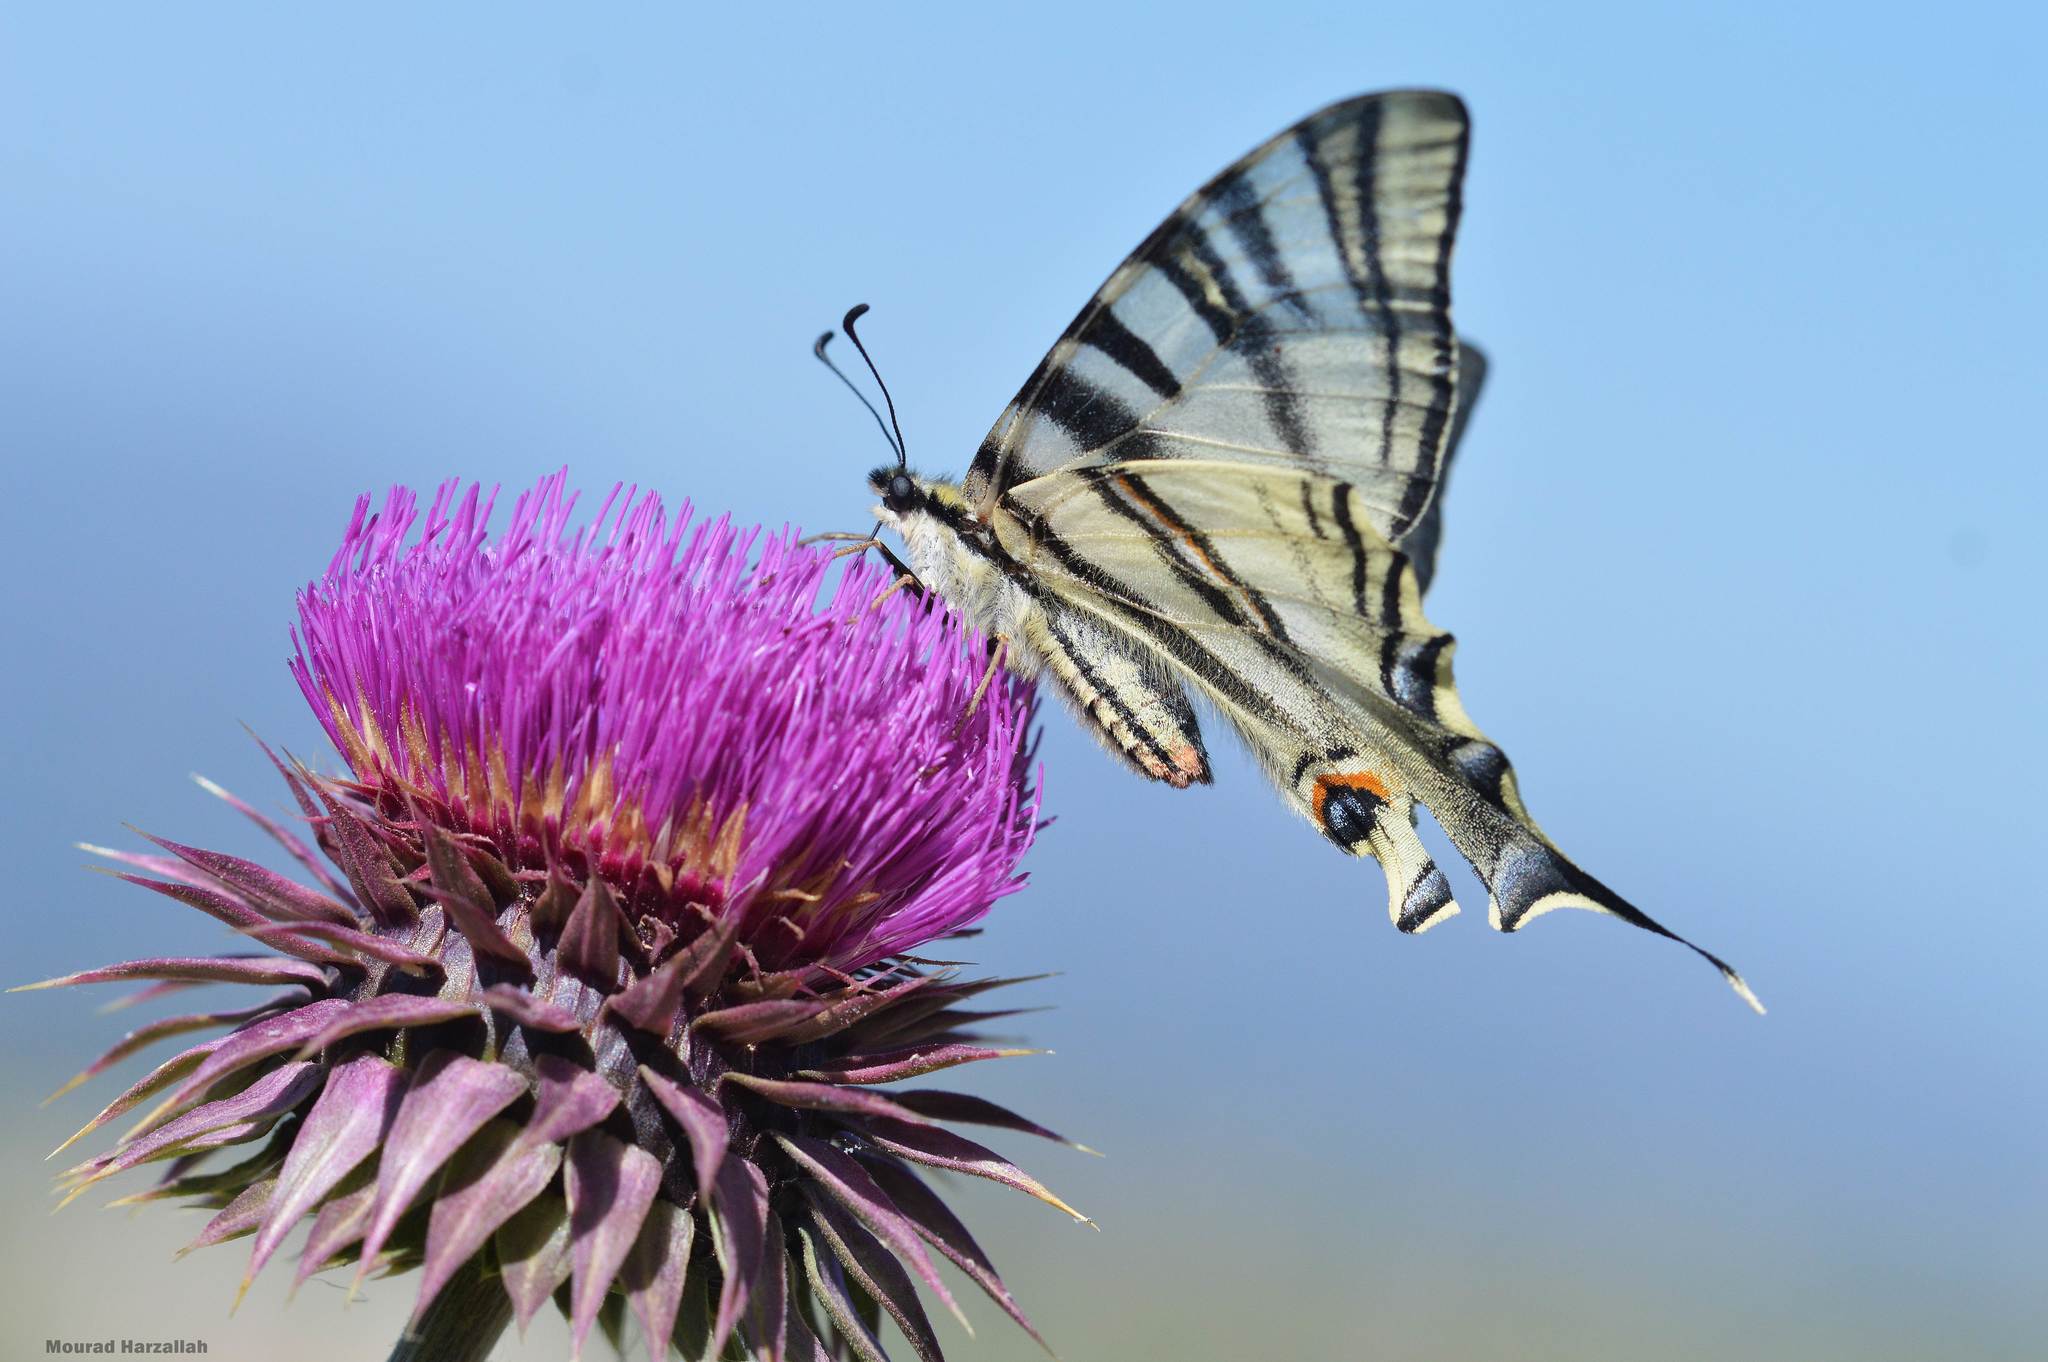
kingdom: Animalia
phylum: Arthropoda
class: Insecta
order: Lepidoptera
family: Papilionidae
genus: Iphiclides
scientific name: Iphiclides feisthamelii
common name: Iberian scarce swallowtail
